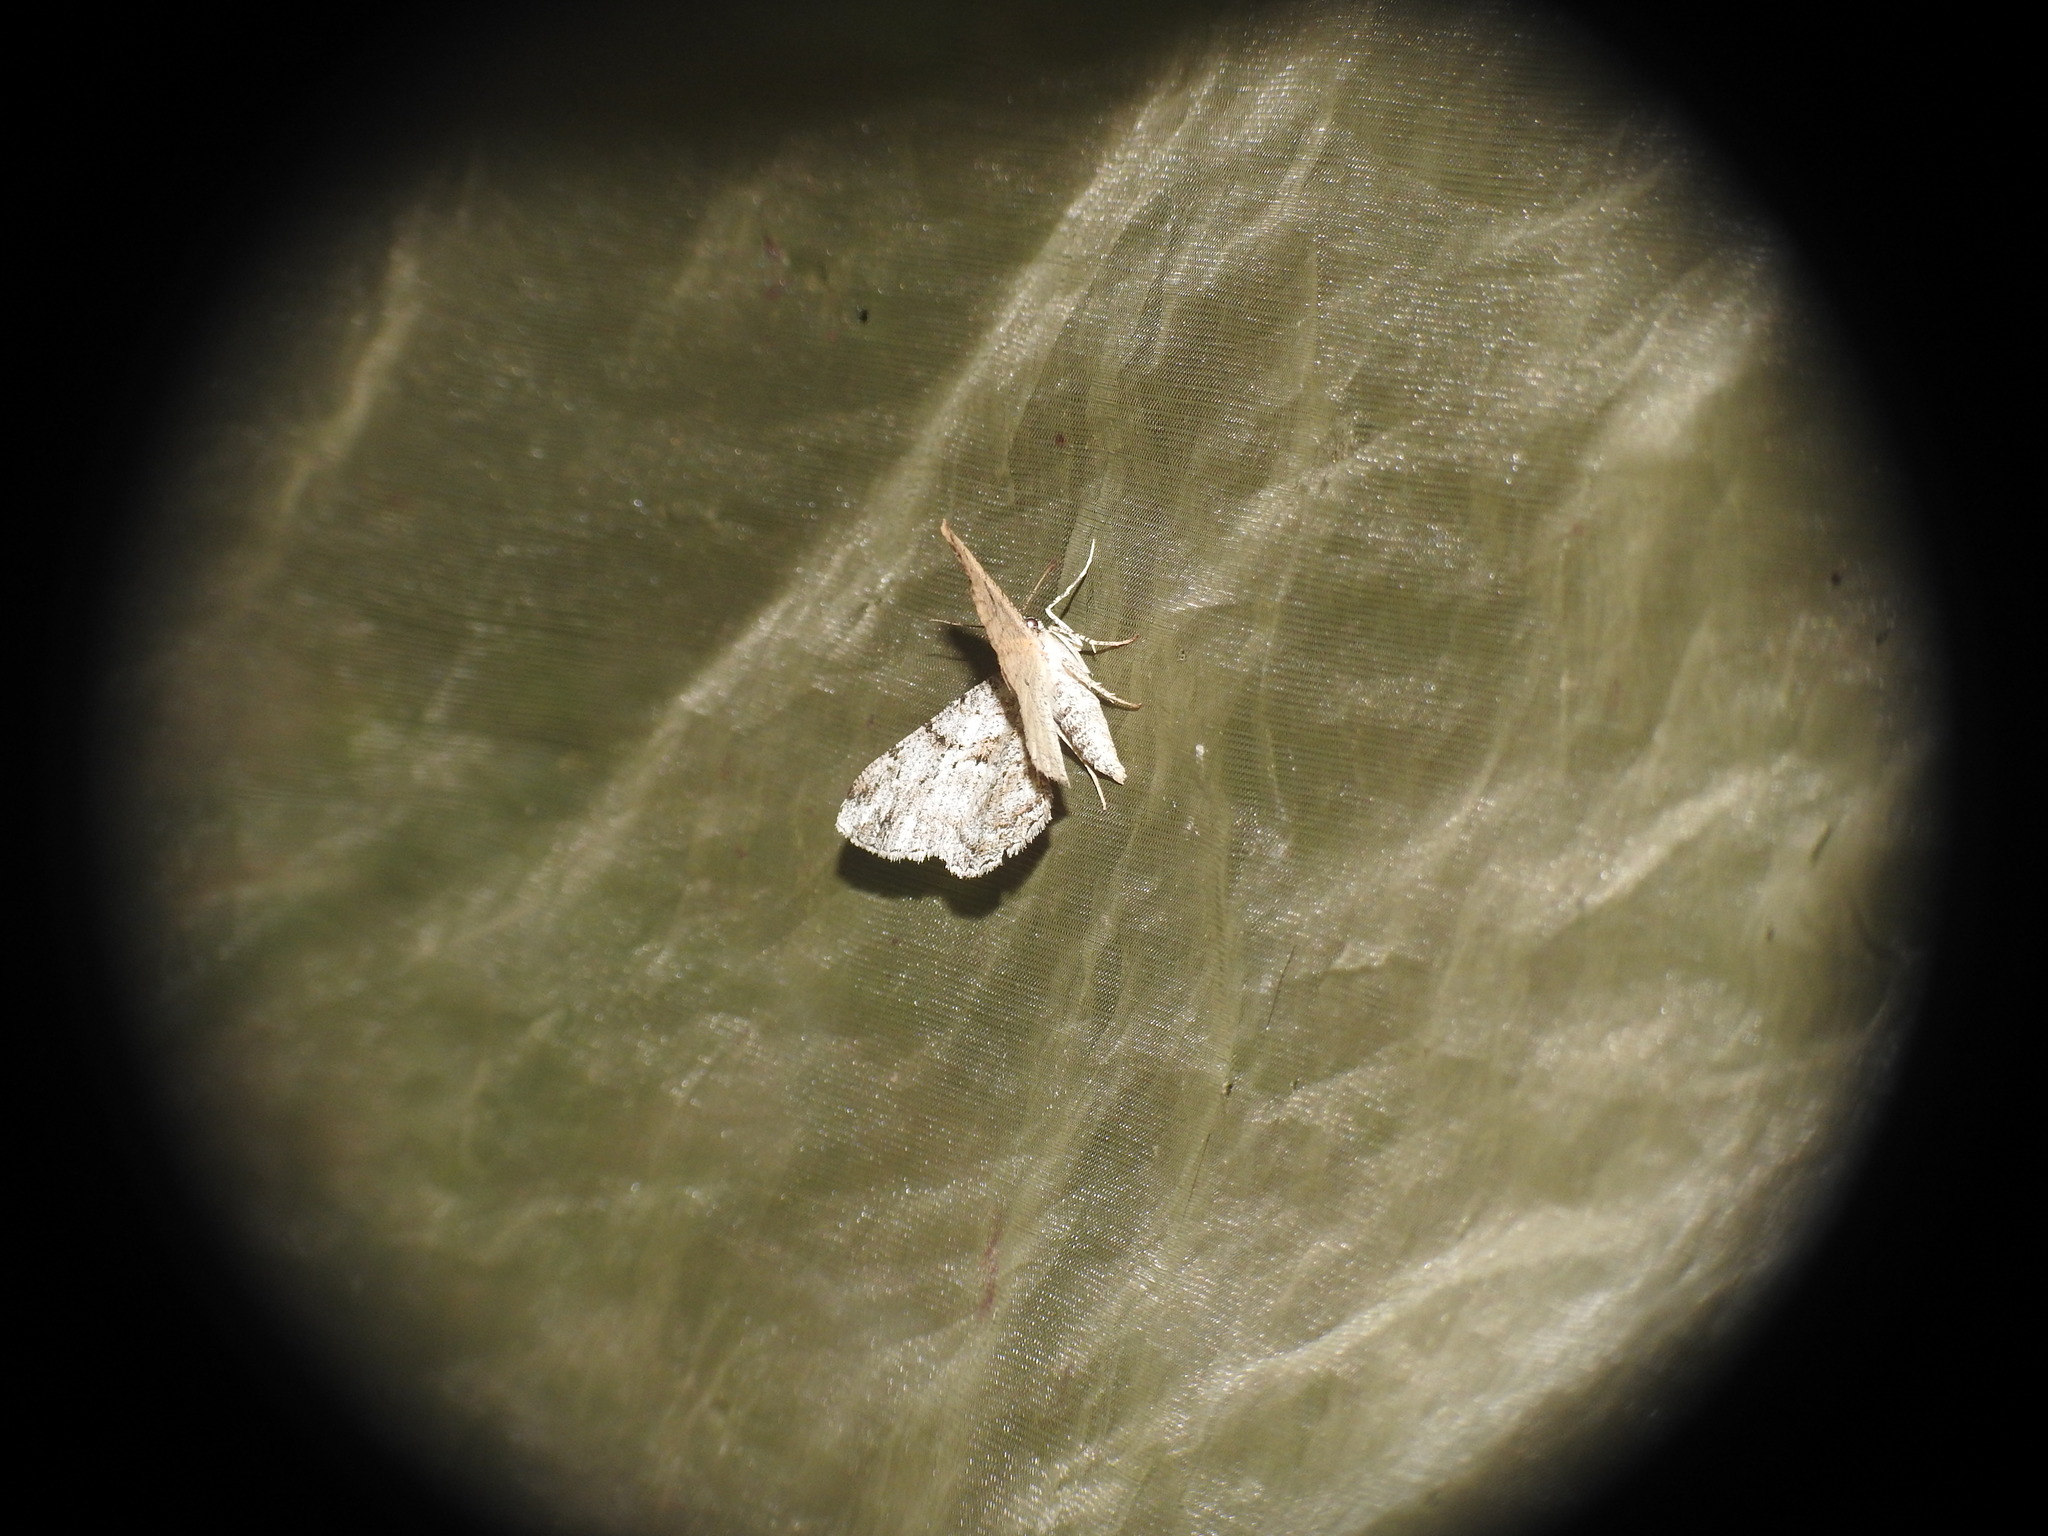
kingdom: Animalia
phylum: Arthropoda
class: Insecta
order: Lepidoptera
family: Geometridae
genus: Peribatodes
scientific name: Peribatodes rhomboidaria
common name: Willow beauty
